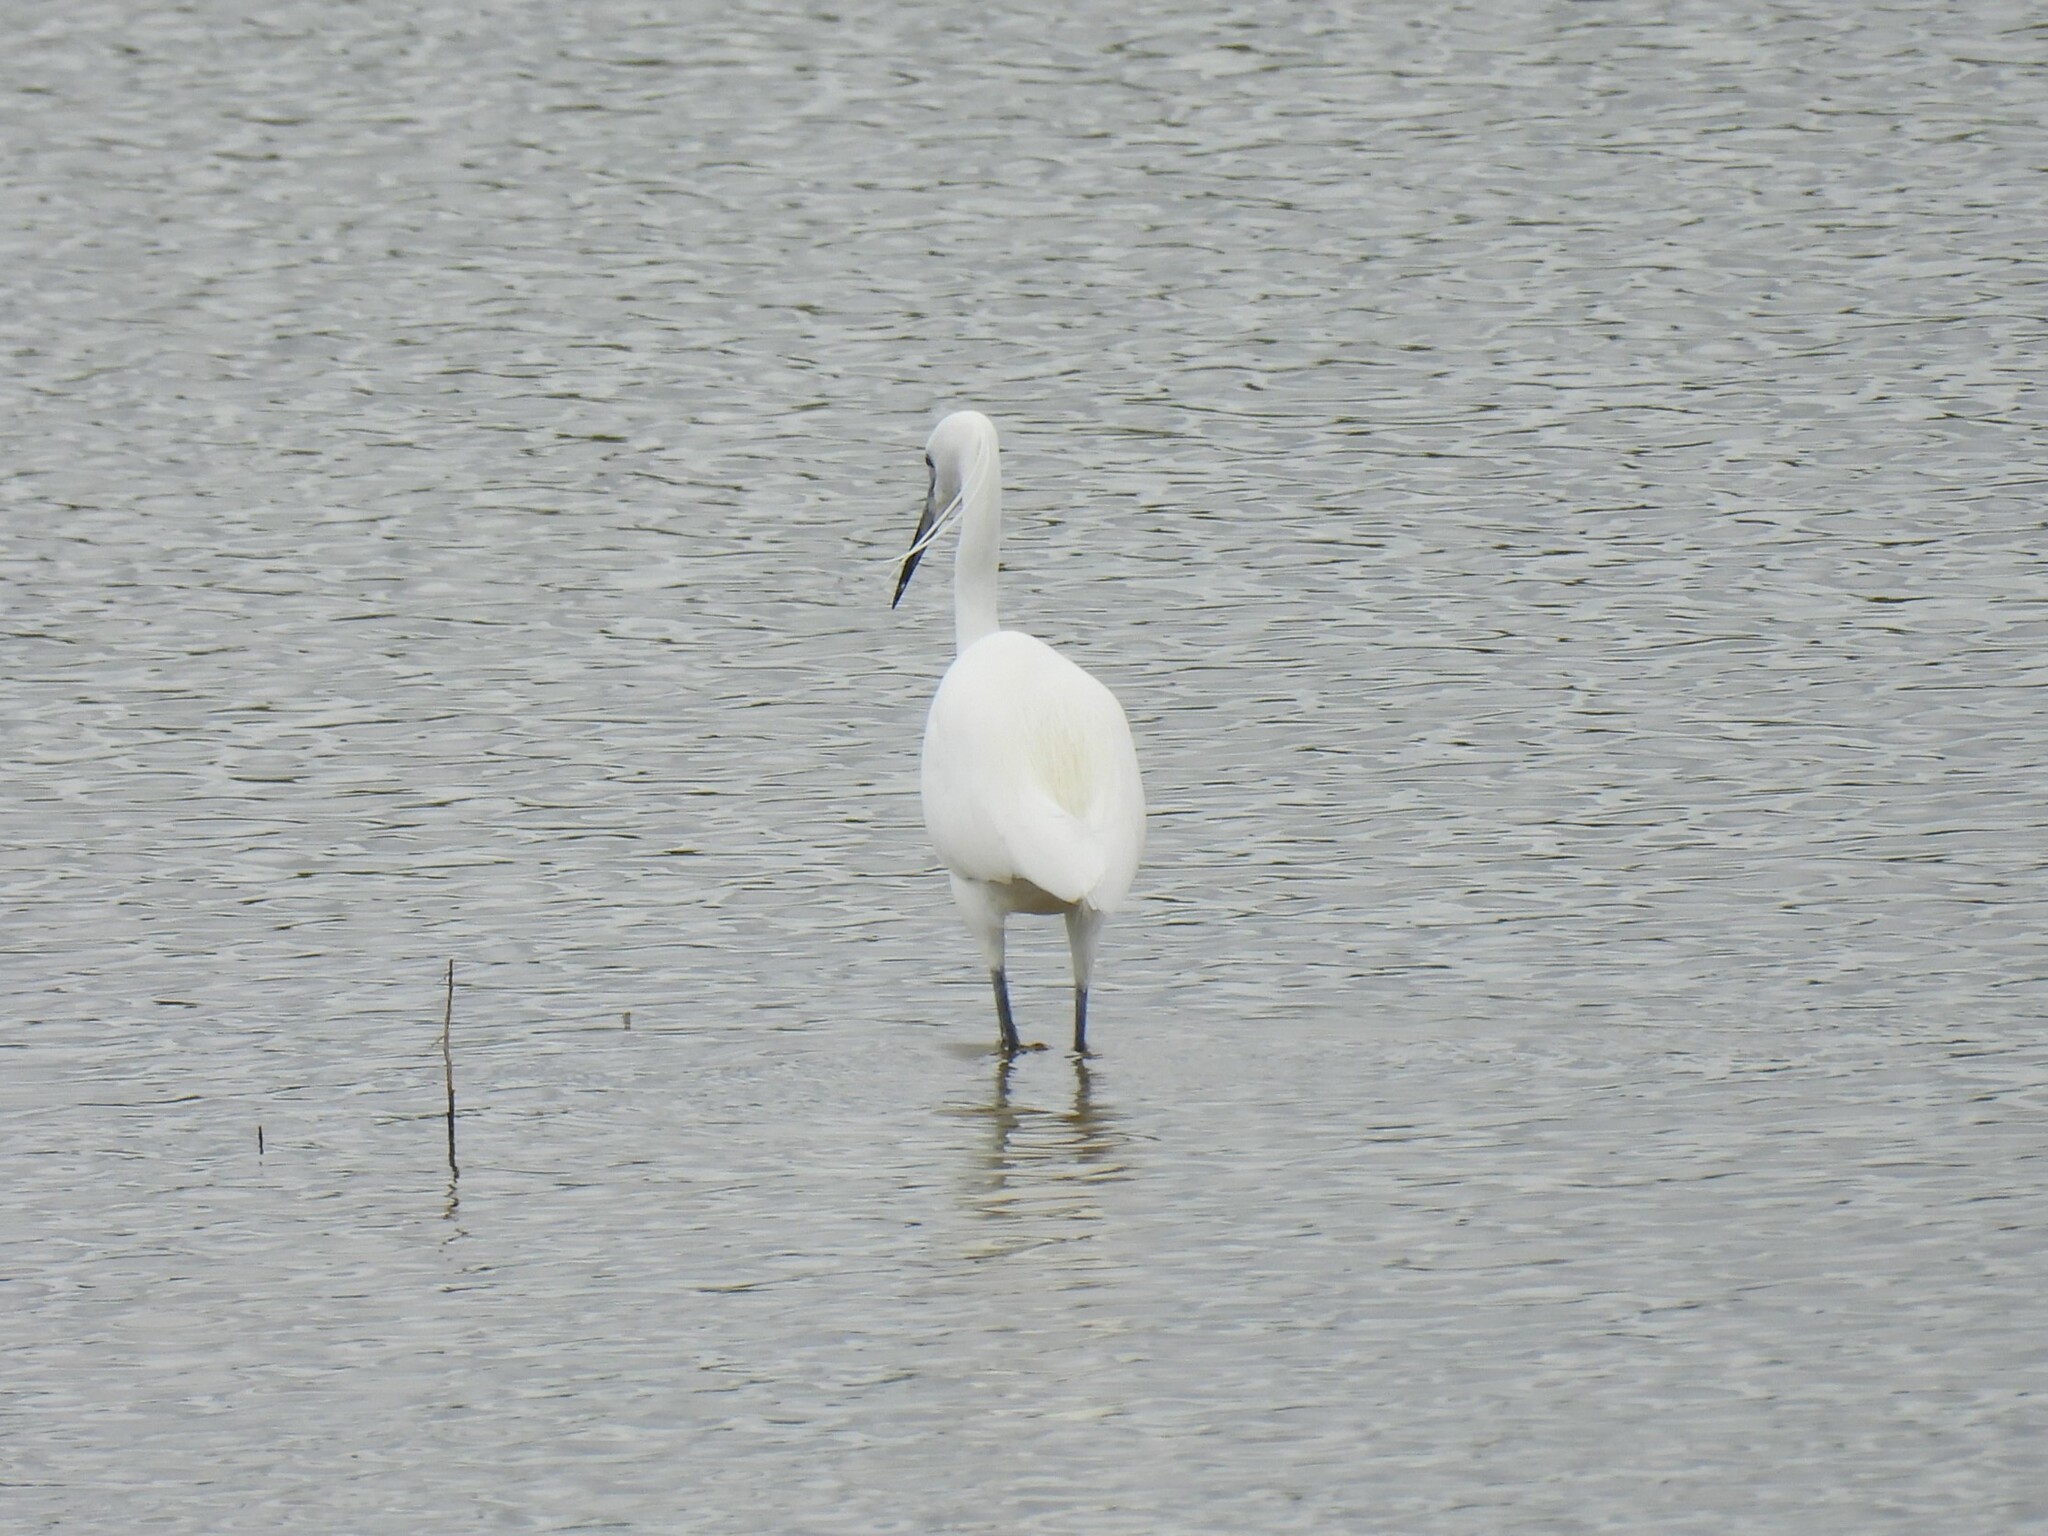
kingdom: Animalia
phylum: Chordata
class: Aves
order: Pelecaniformes
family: Ardeidae
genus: Egretta
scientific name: Egretta garzetta
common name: Little egret
